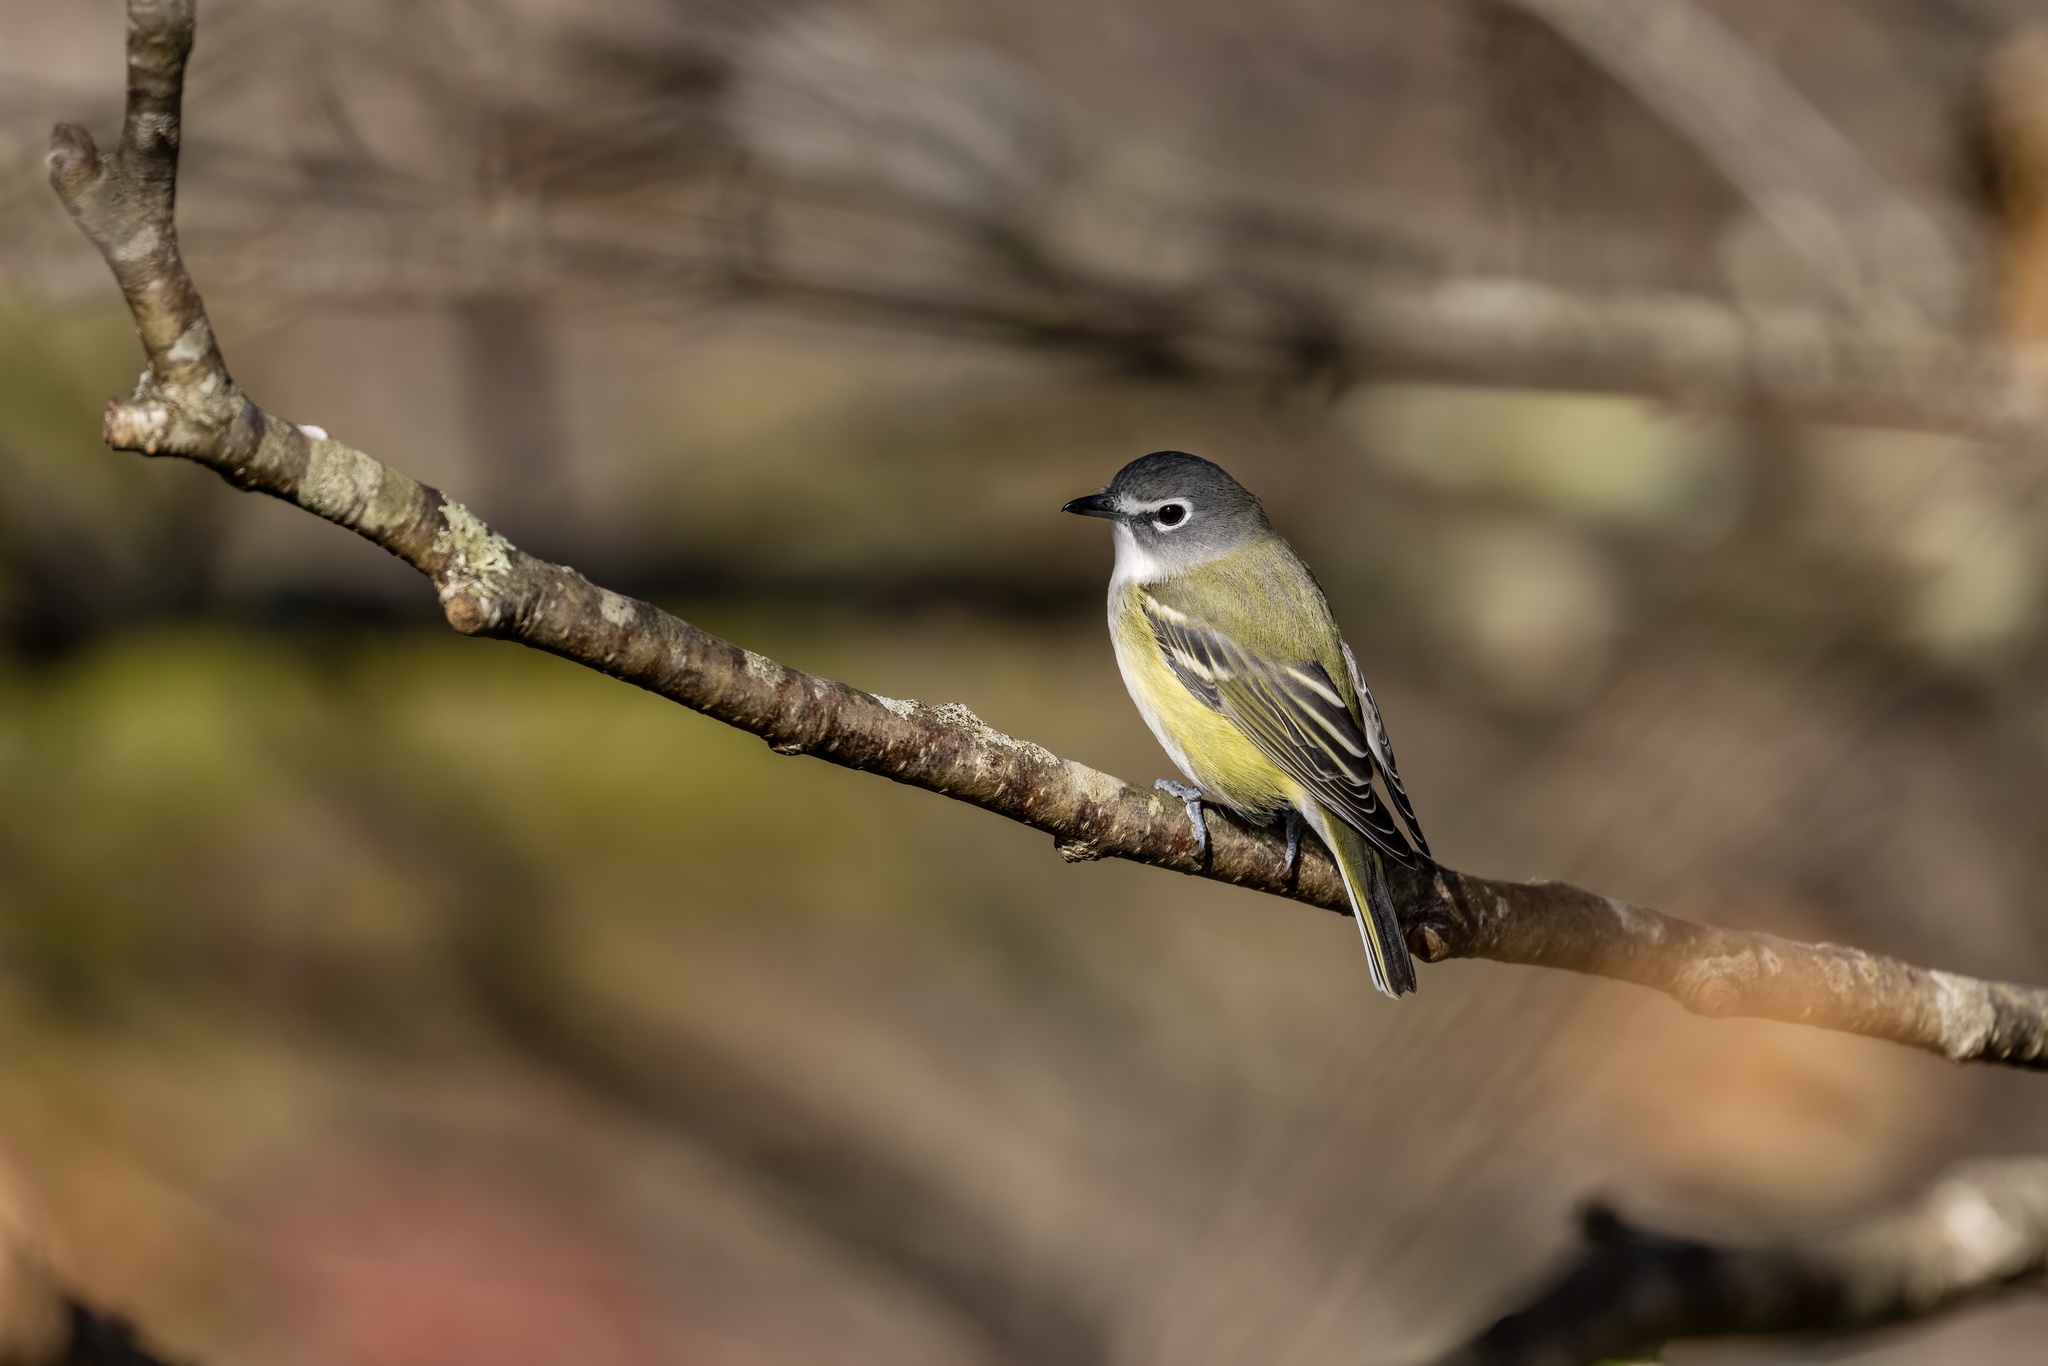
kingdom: Animalia
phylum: Chordata
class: Aves
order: Passeriformes
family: Vireonidae
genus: Vireo
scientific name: Vireo solitarius
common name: Blue-headed vireo
